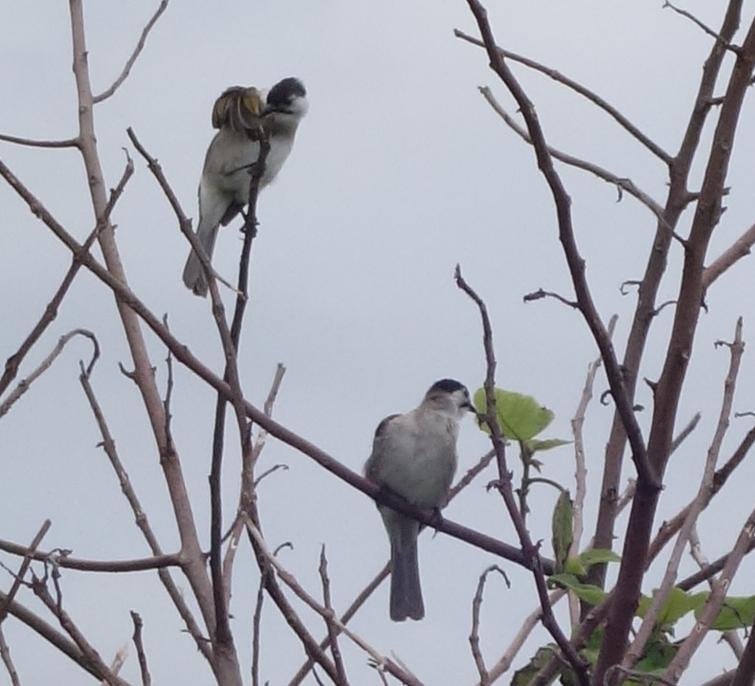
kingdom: Animalia
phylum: Chordata
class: Aves
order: Passeriformes
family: Pycnonotidae
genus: Pycnonotus
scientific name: Pycnonotus taivanus
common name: Styan's bulbul
